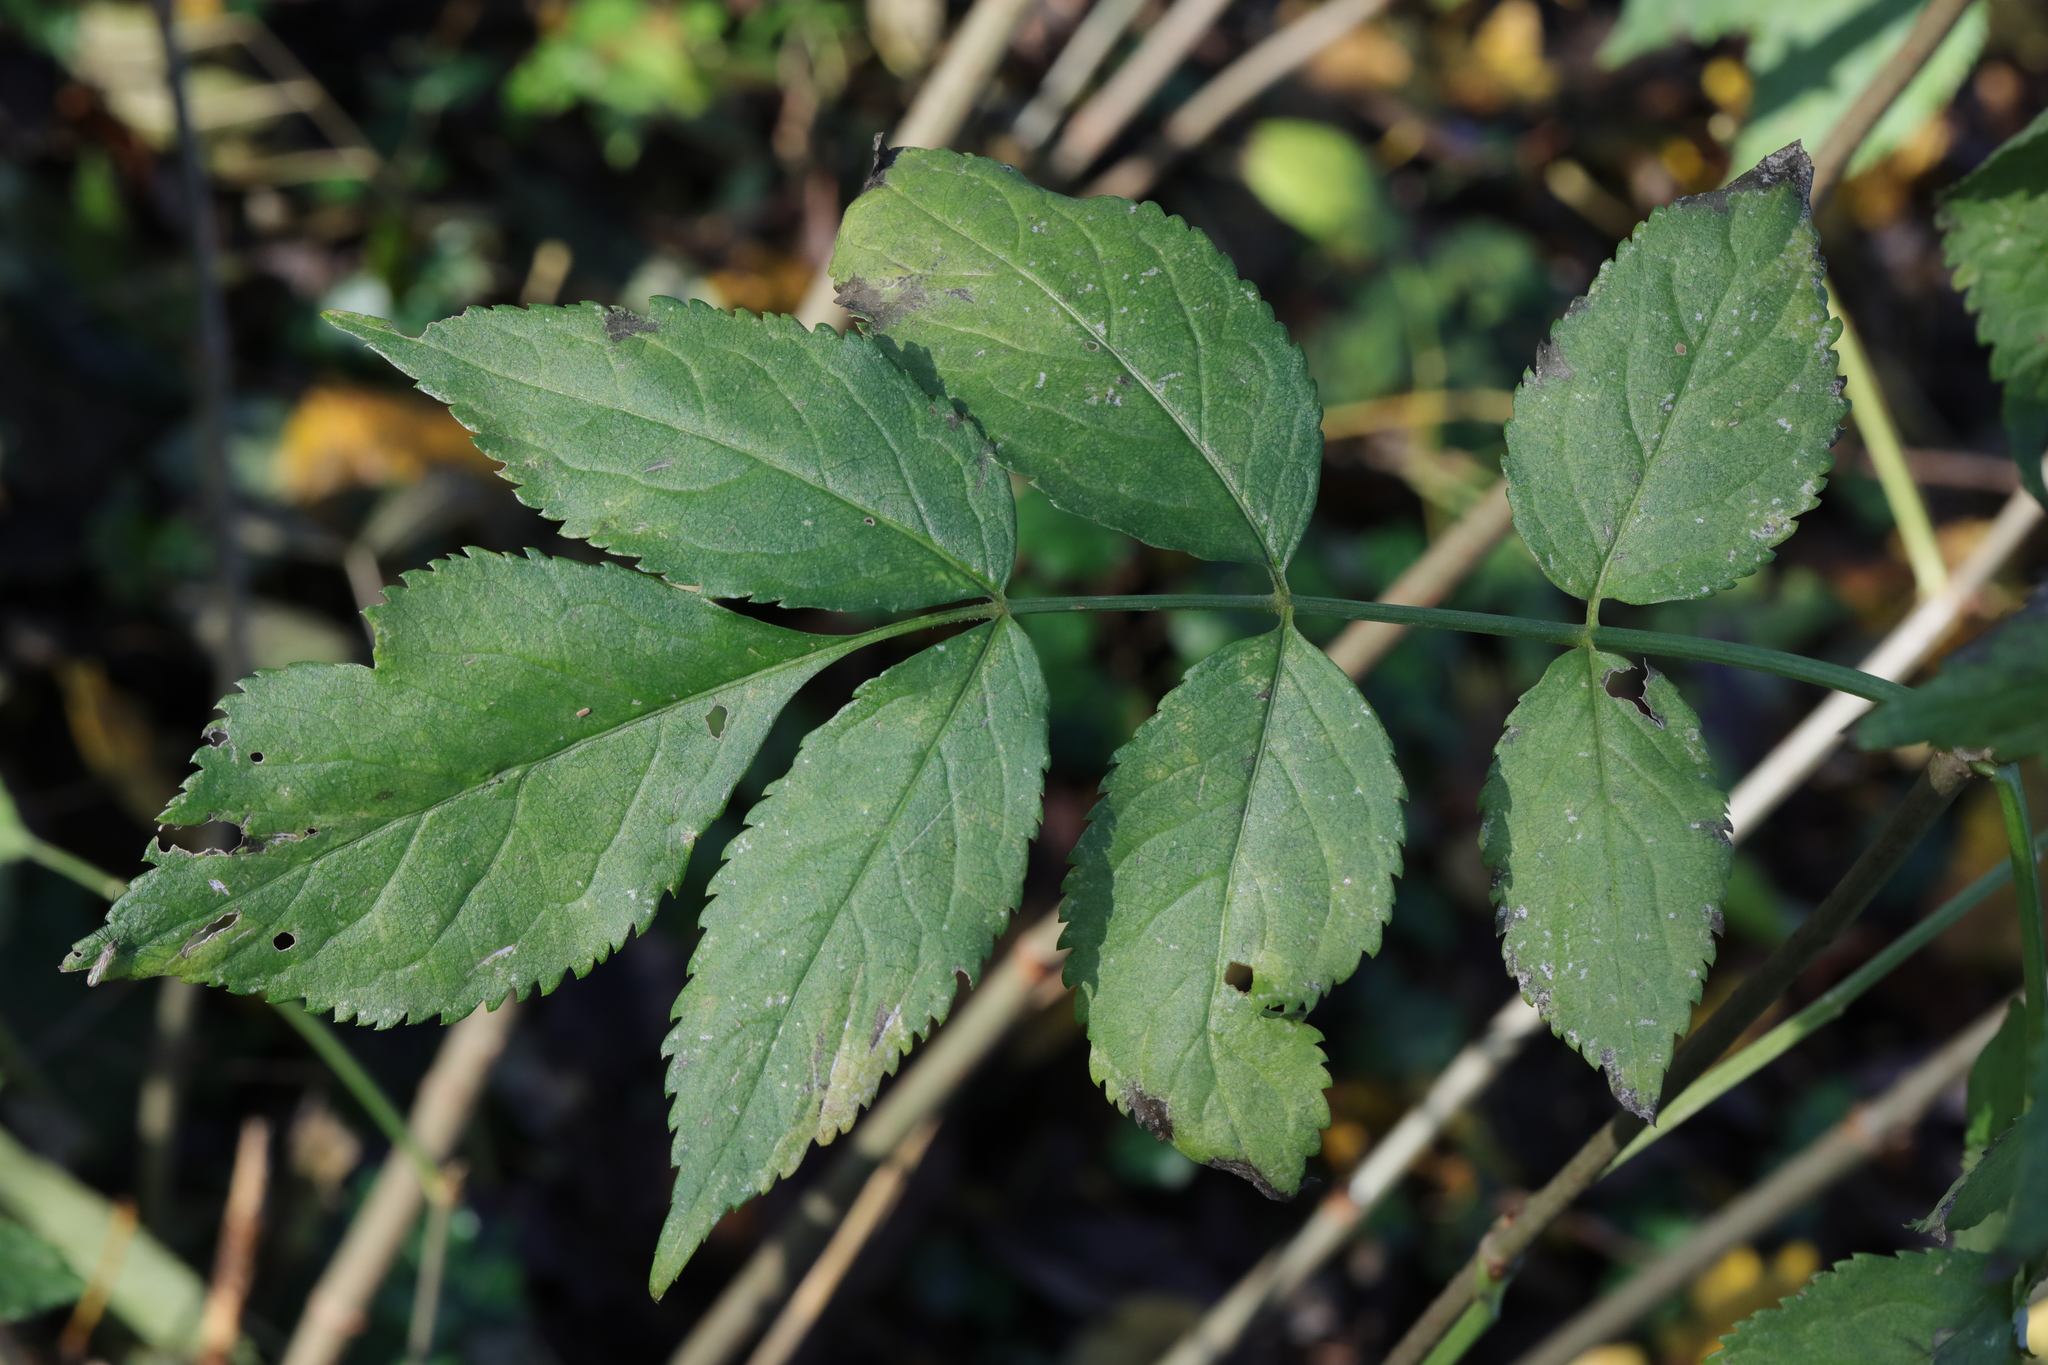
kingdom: Plantae
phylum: Tracheophyta
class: Magnoliopsida
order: Dipsacales
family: Viburnaceae
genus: Sambucus
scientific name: Sambucus nigra
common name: Elder
